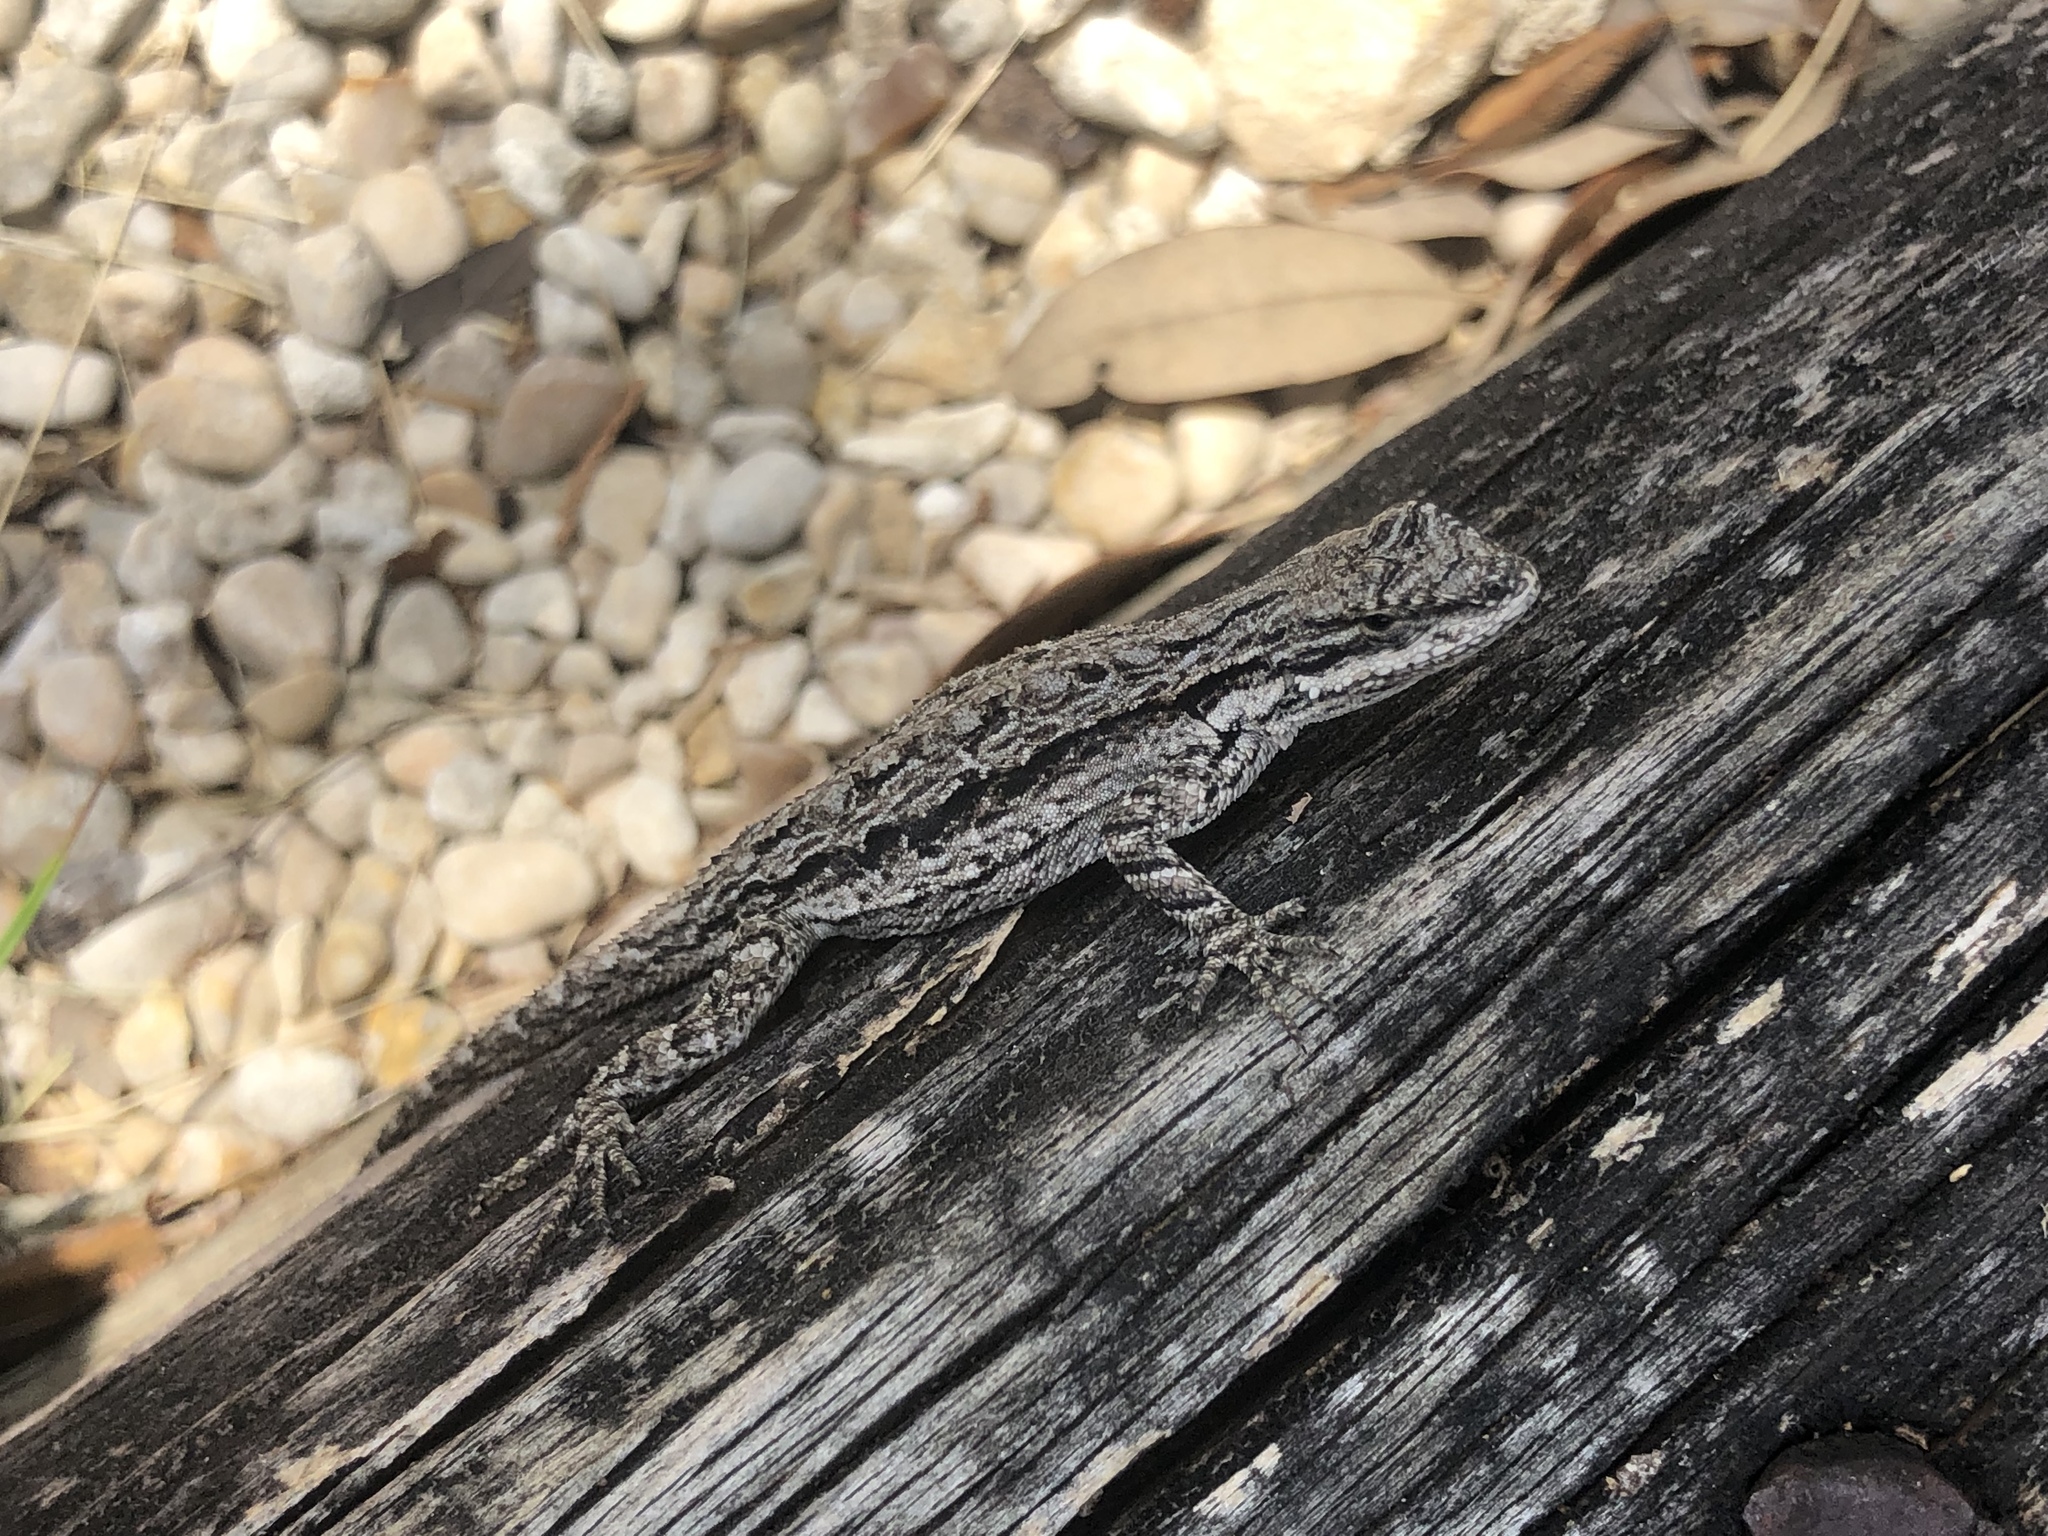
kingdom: Animalia
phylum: Chordata
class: Squamata
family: Phrynosomatidae
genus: Urosaurus
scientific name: Urosaurus ornatus
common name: Ornate tree lizard
